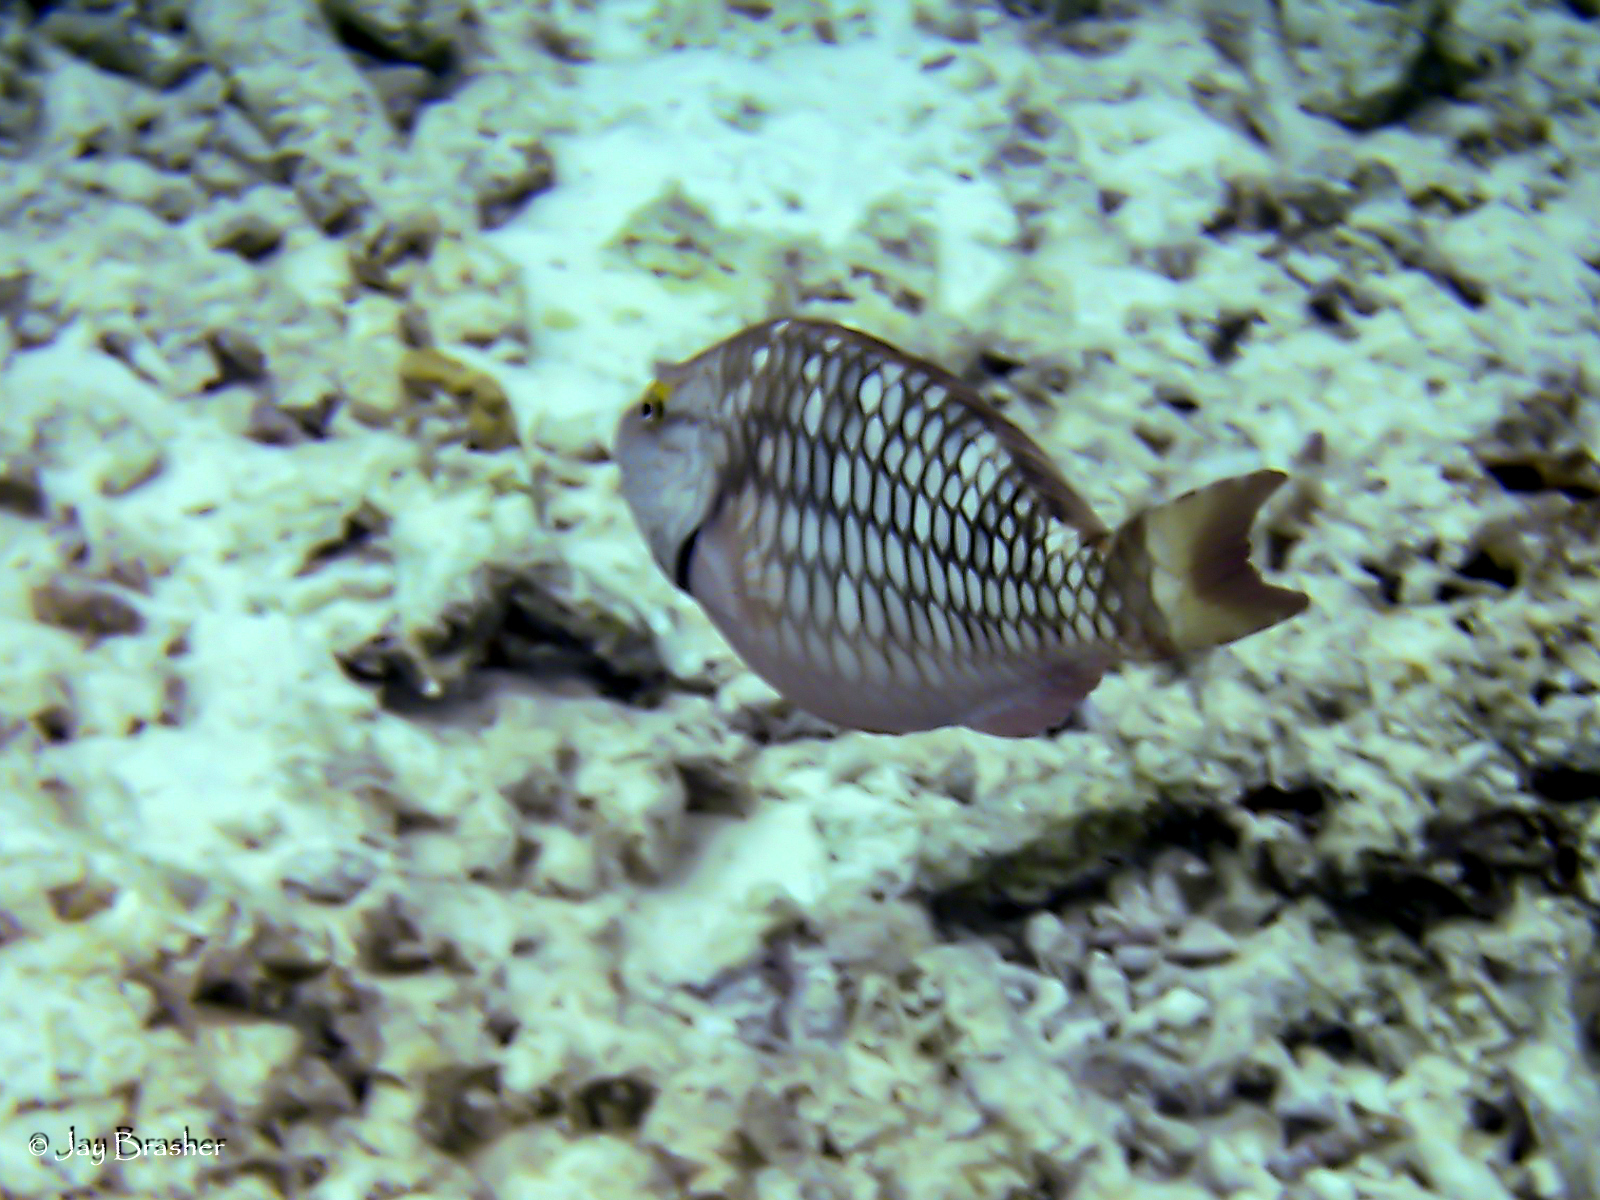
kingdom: Animalia
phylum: Chordata
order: Perciformes
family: Scaridae
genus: Sparisoma
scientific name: Sparisoma viride
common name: Stoplight parrotfish
